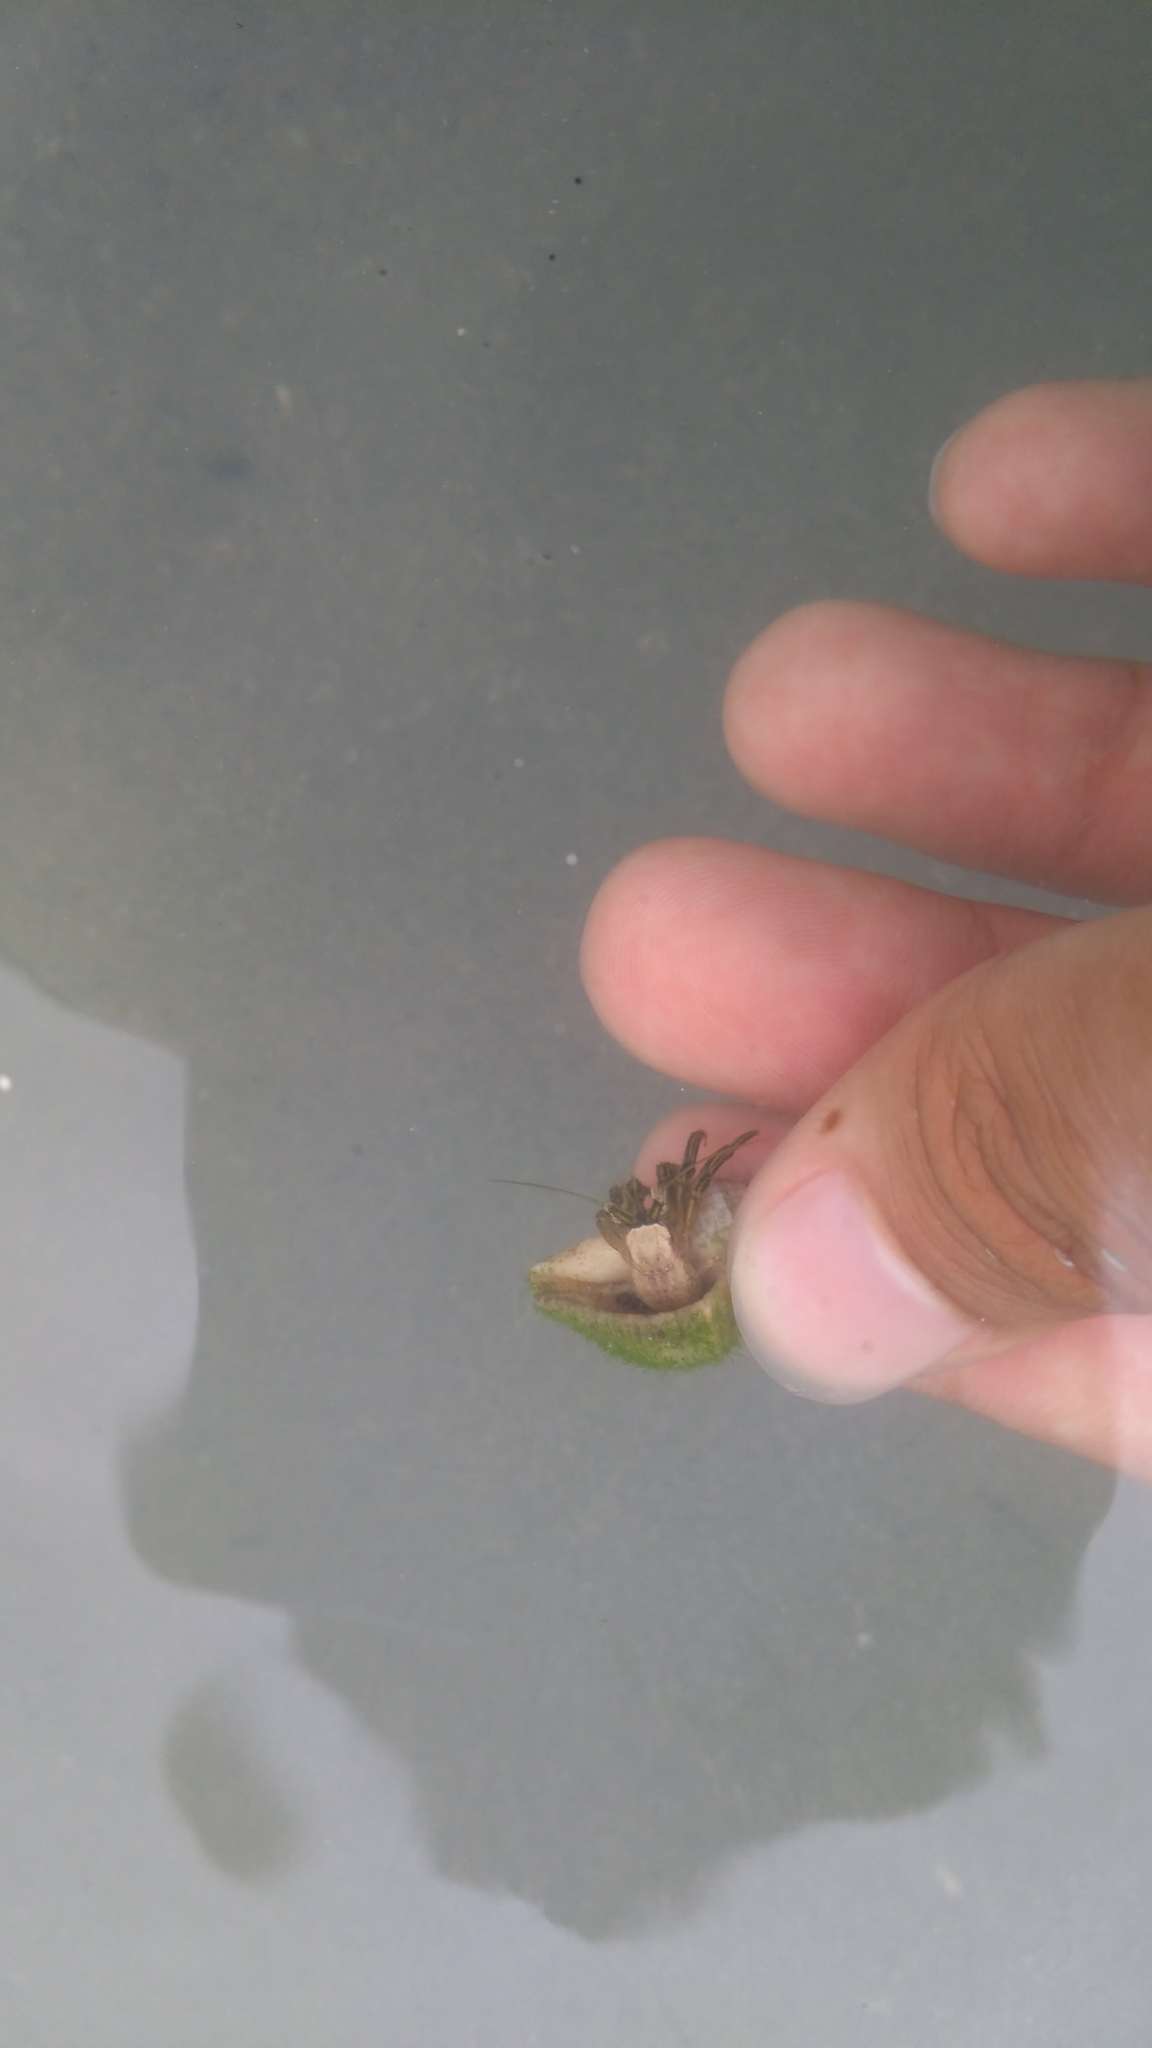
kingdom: Animalia
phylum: Arthropoda
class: Malacostraca
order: Decapoda
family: Diogenidae
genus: Clibanarius
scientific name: Clibanarius symmetricus
